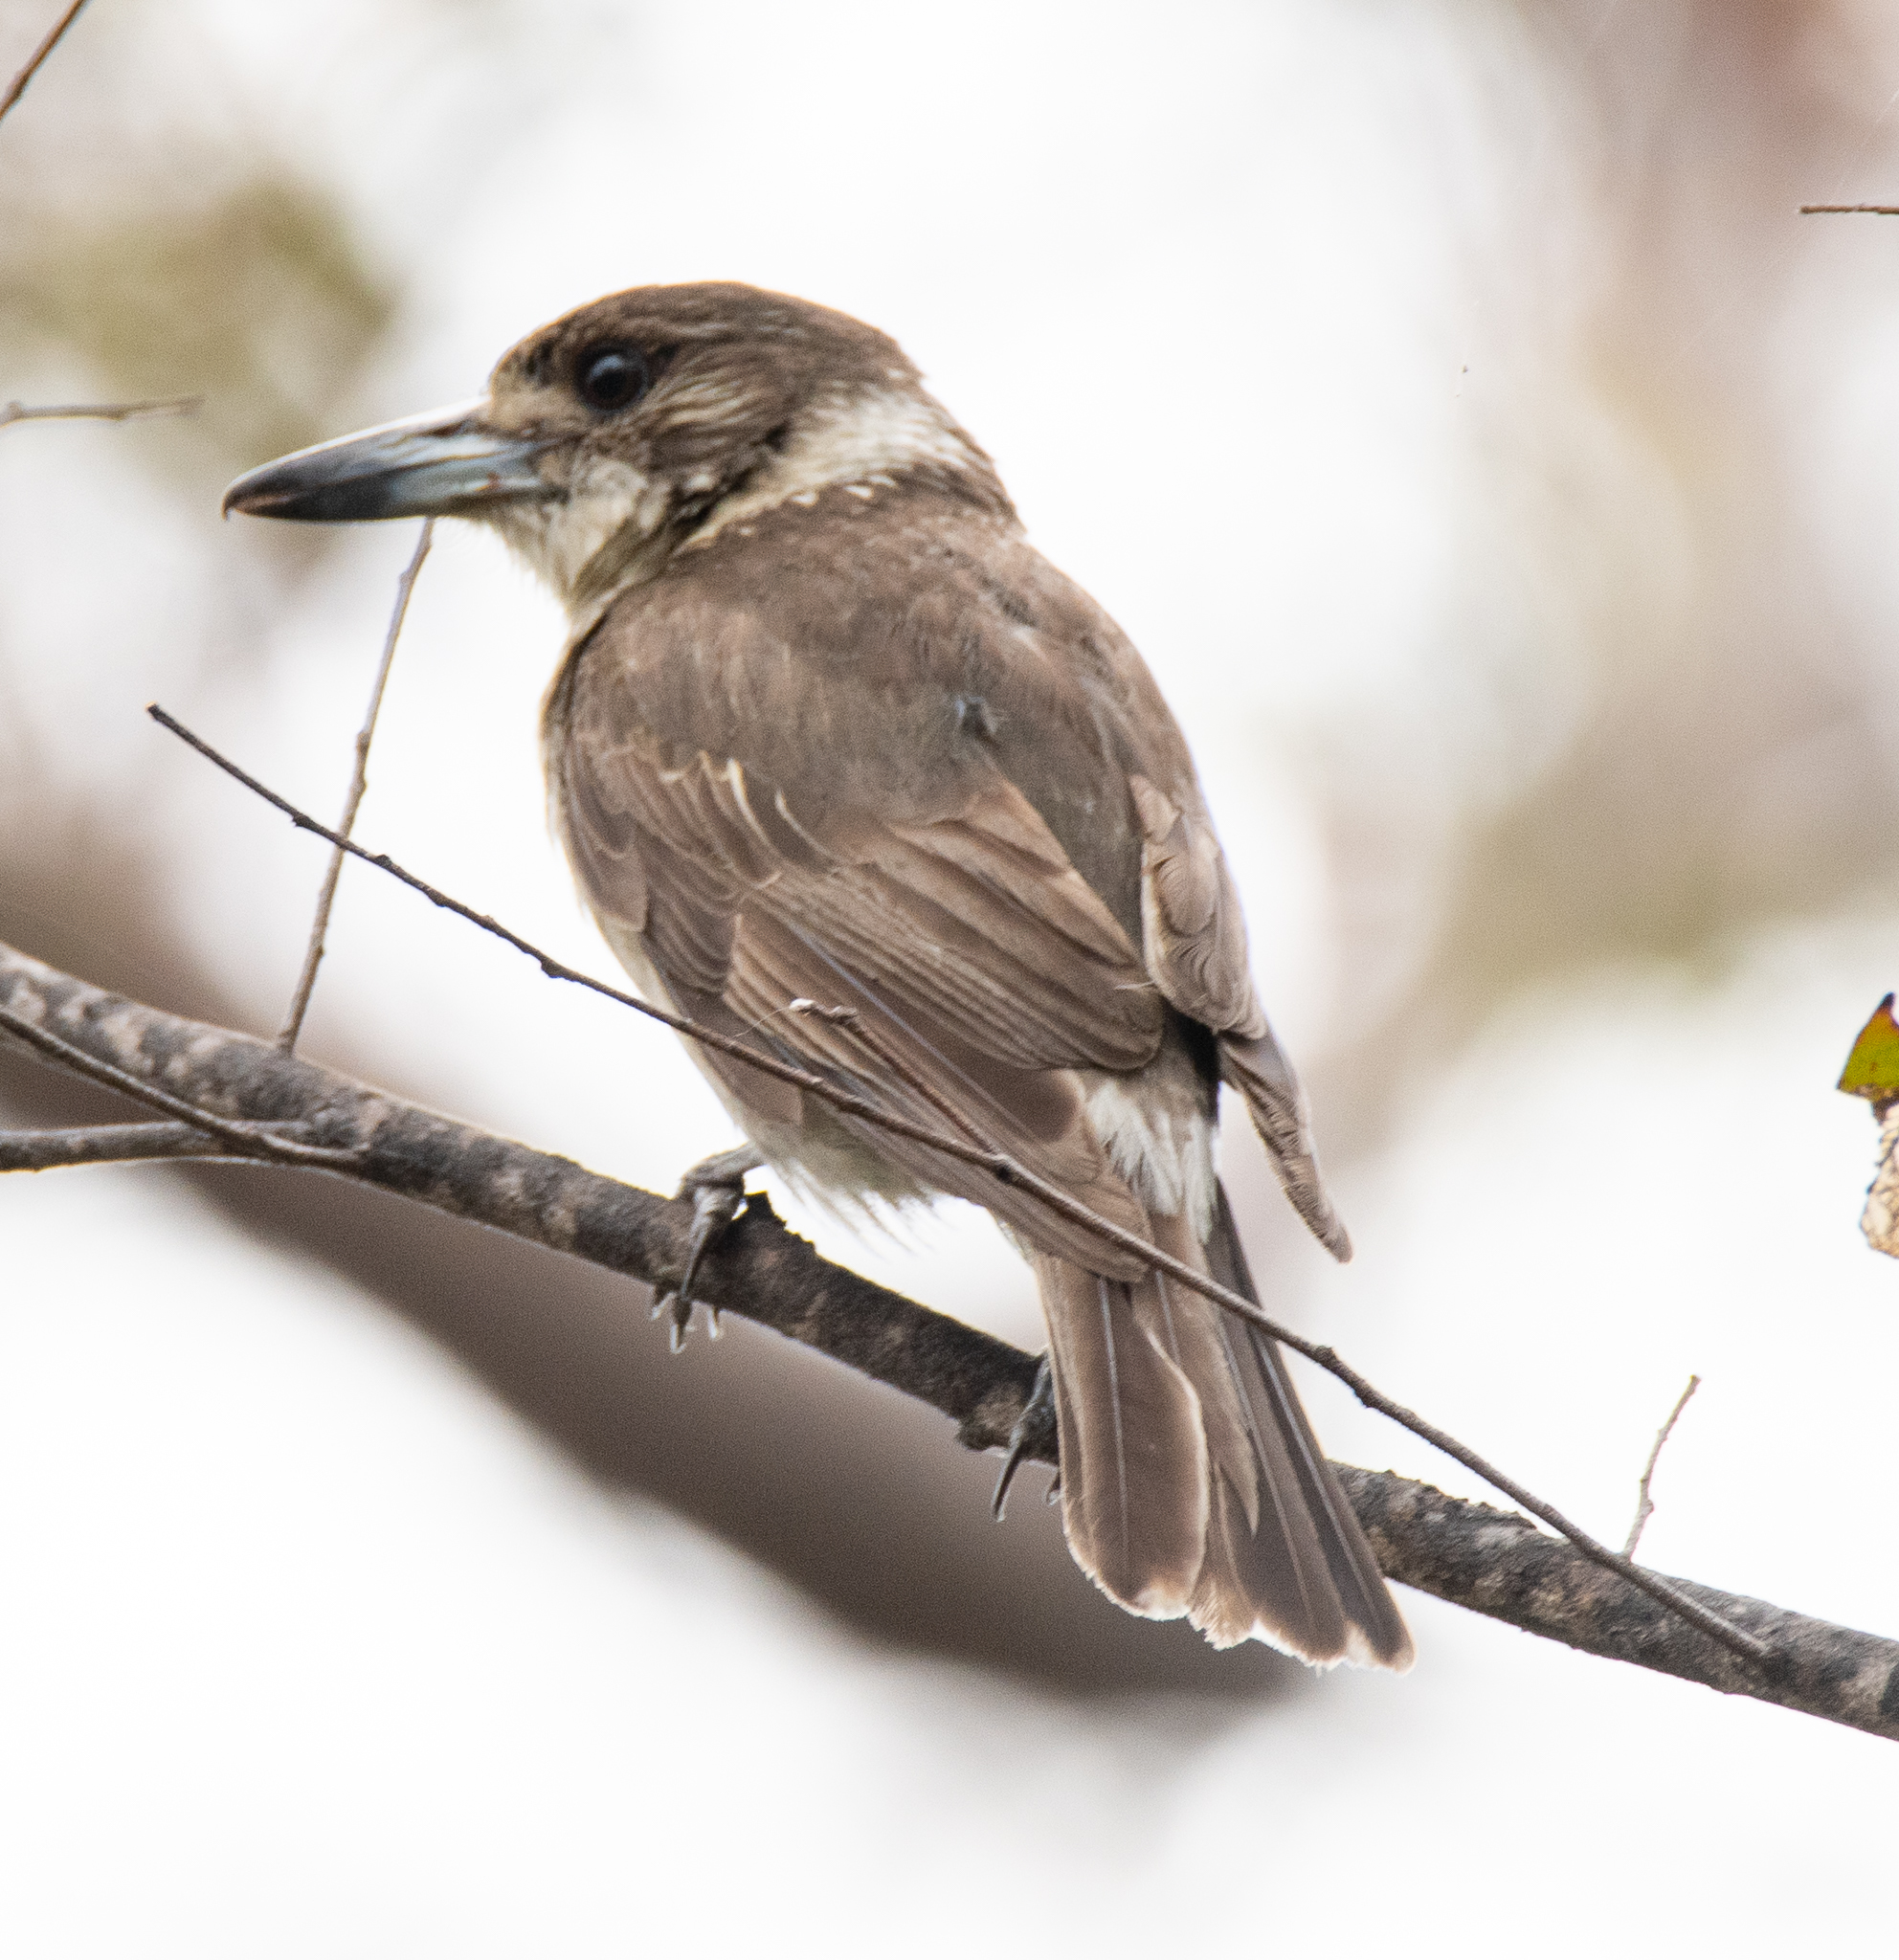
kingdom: Animalia
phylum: Chordata
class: Aves
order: Passeriformes
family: Cracticidae
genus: Cracticus
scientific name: Cracticus torquatus
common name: Grey butcherbird
